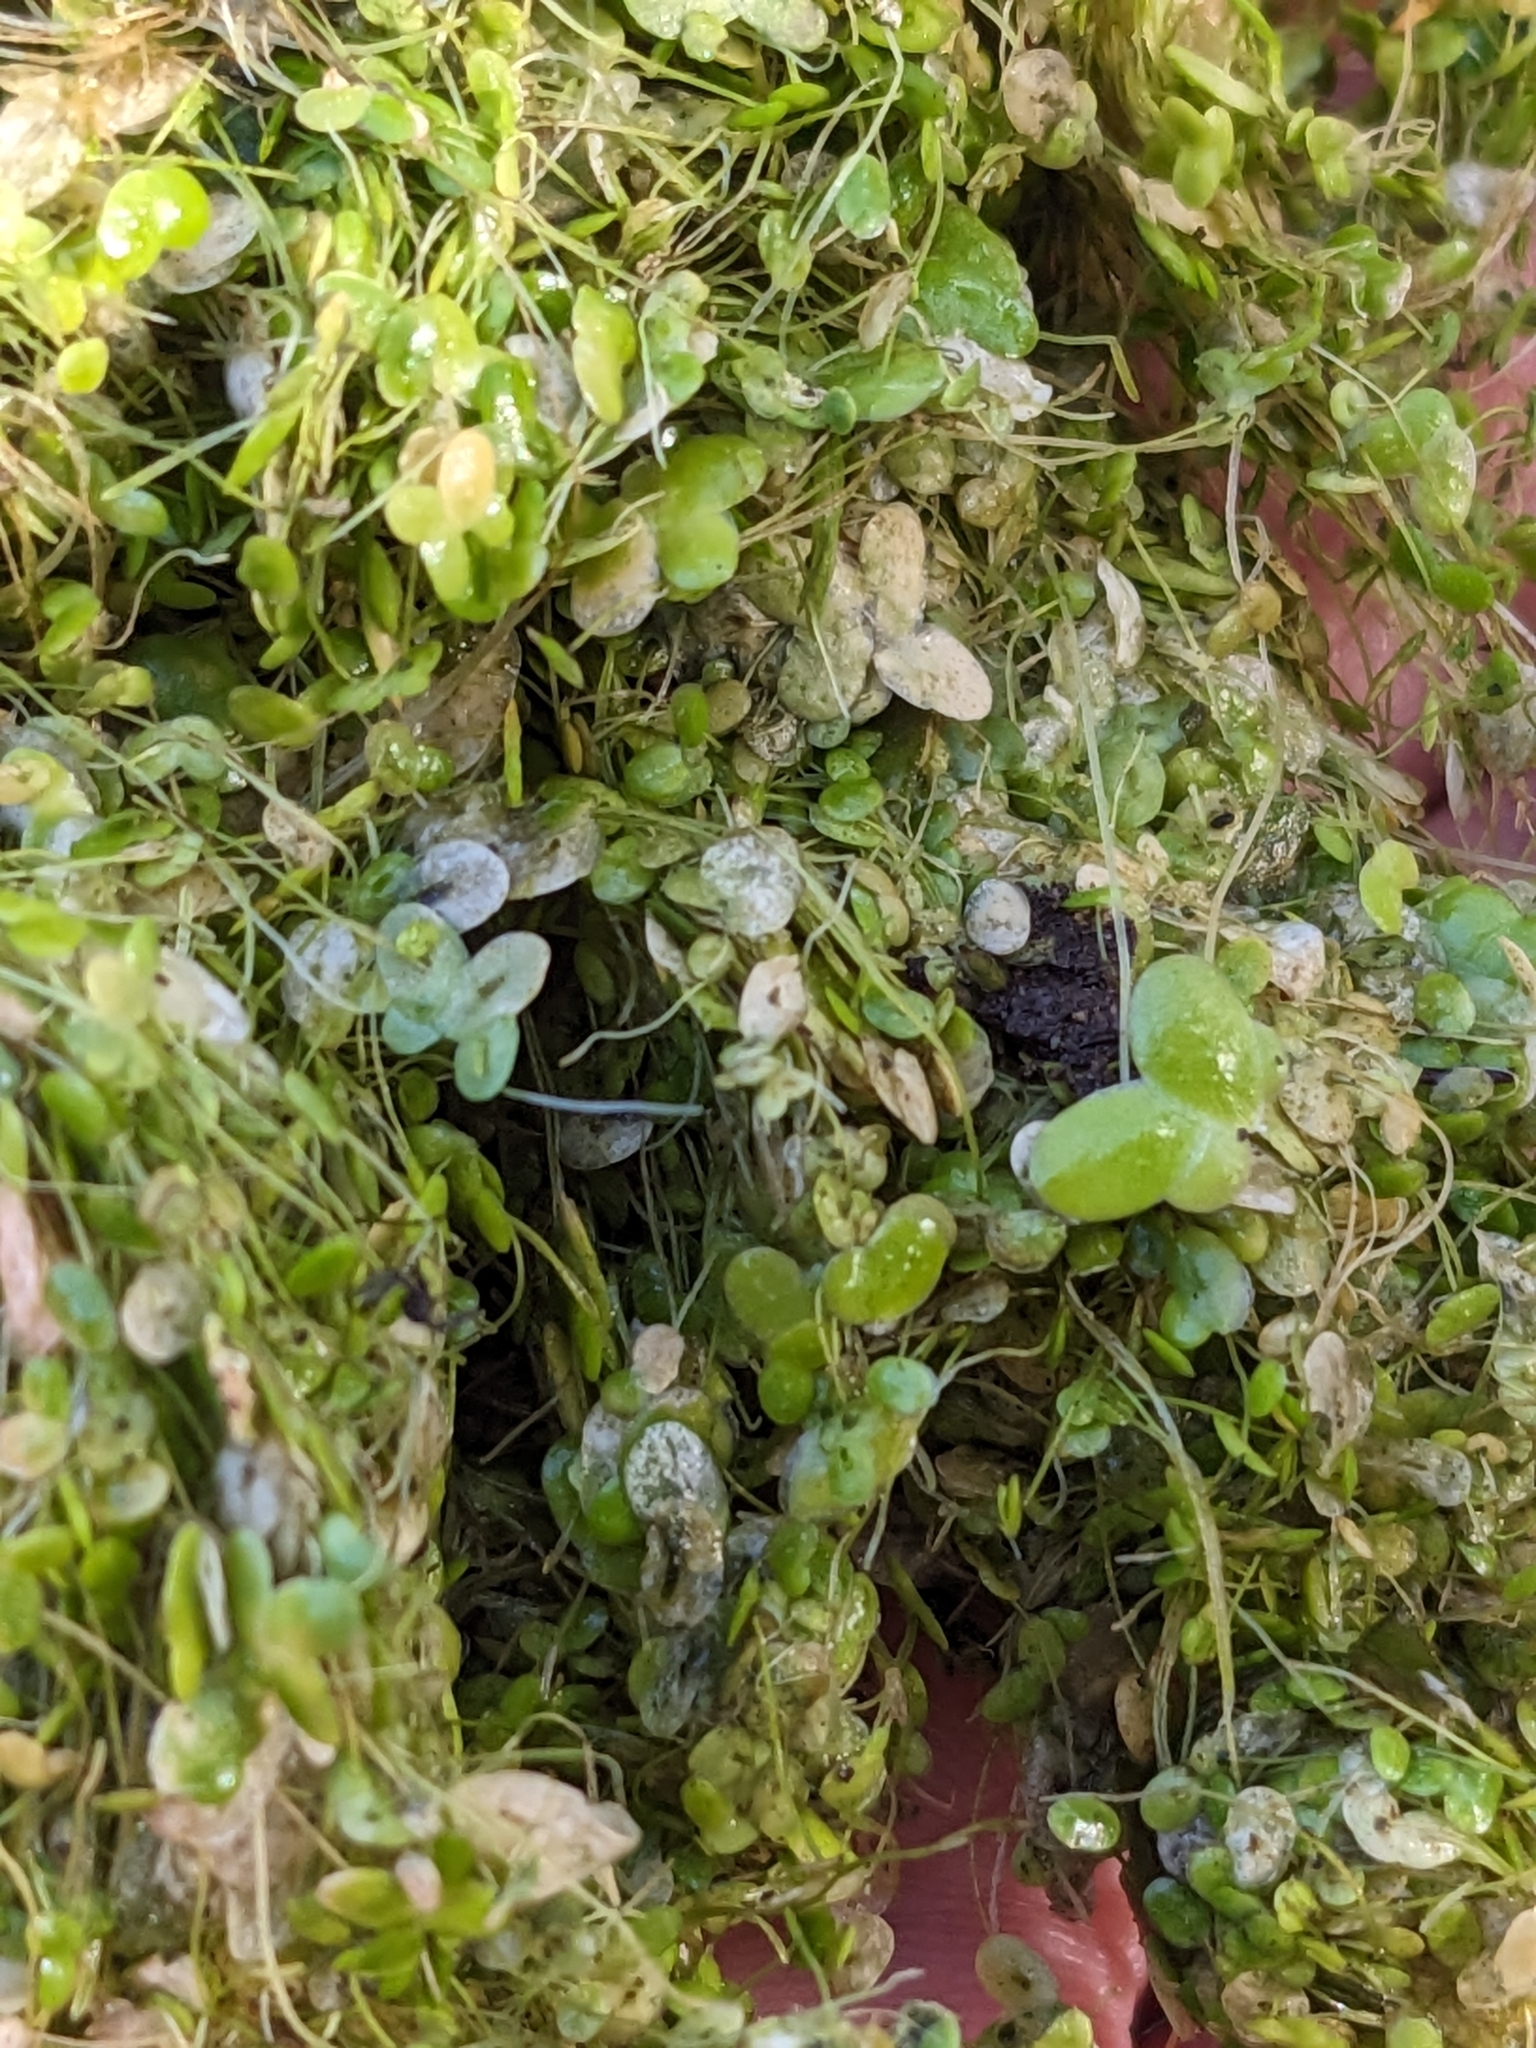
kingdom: Plantae
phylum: Tracheophyta
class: Liliopsida
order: Alismatales
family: Araceae
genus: Lemna
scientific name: Lemna minor
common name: Common duckweed
